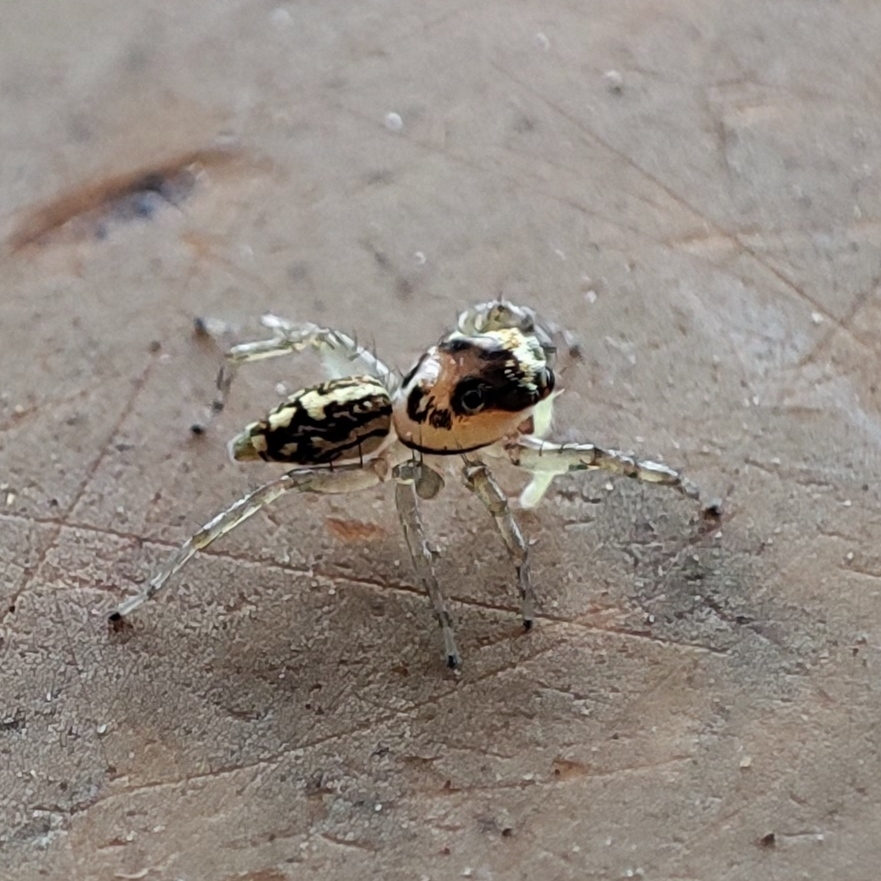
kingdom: Animalia
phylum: Arthropoda
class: Arachnida
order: Araneae
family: Salticidae
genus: Phintelloides
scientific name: Phintelloides versicolor
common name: Jumping spider
